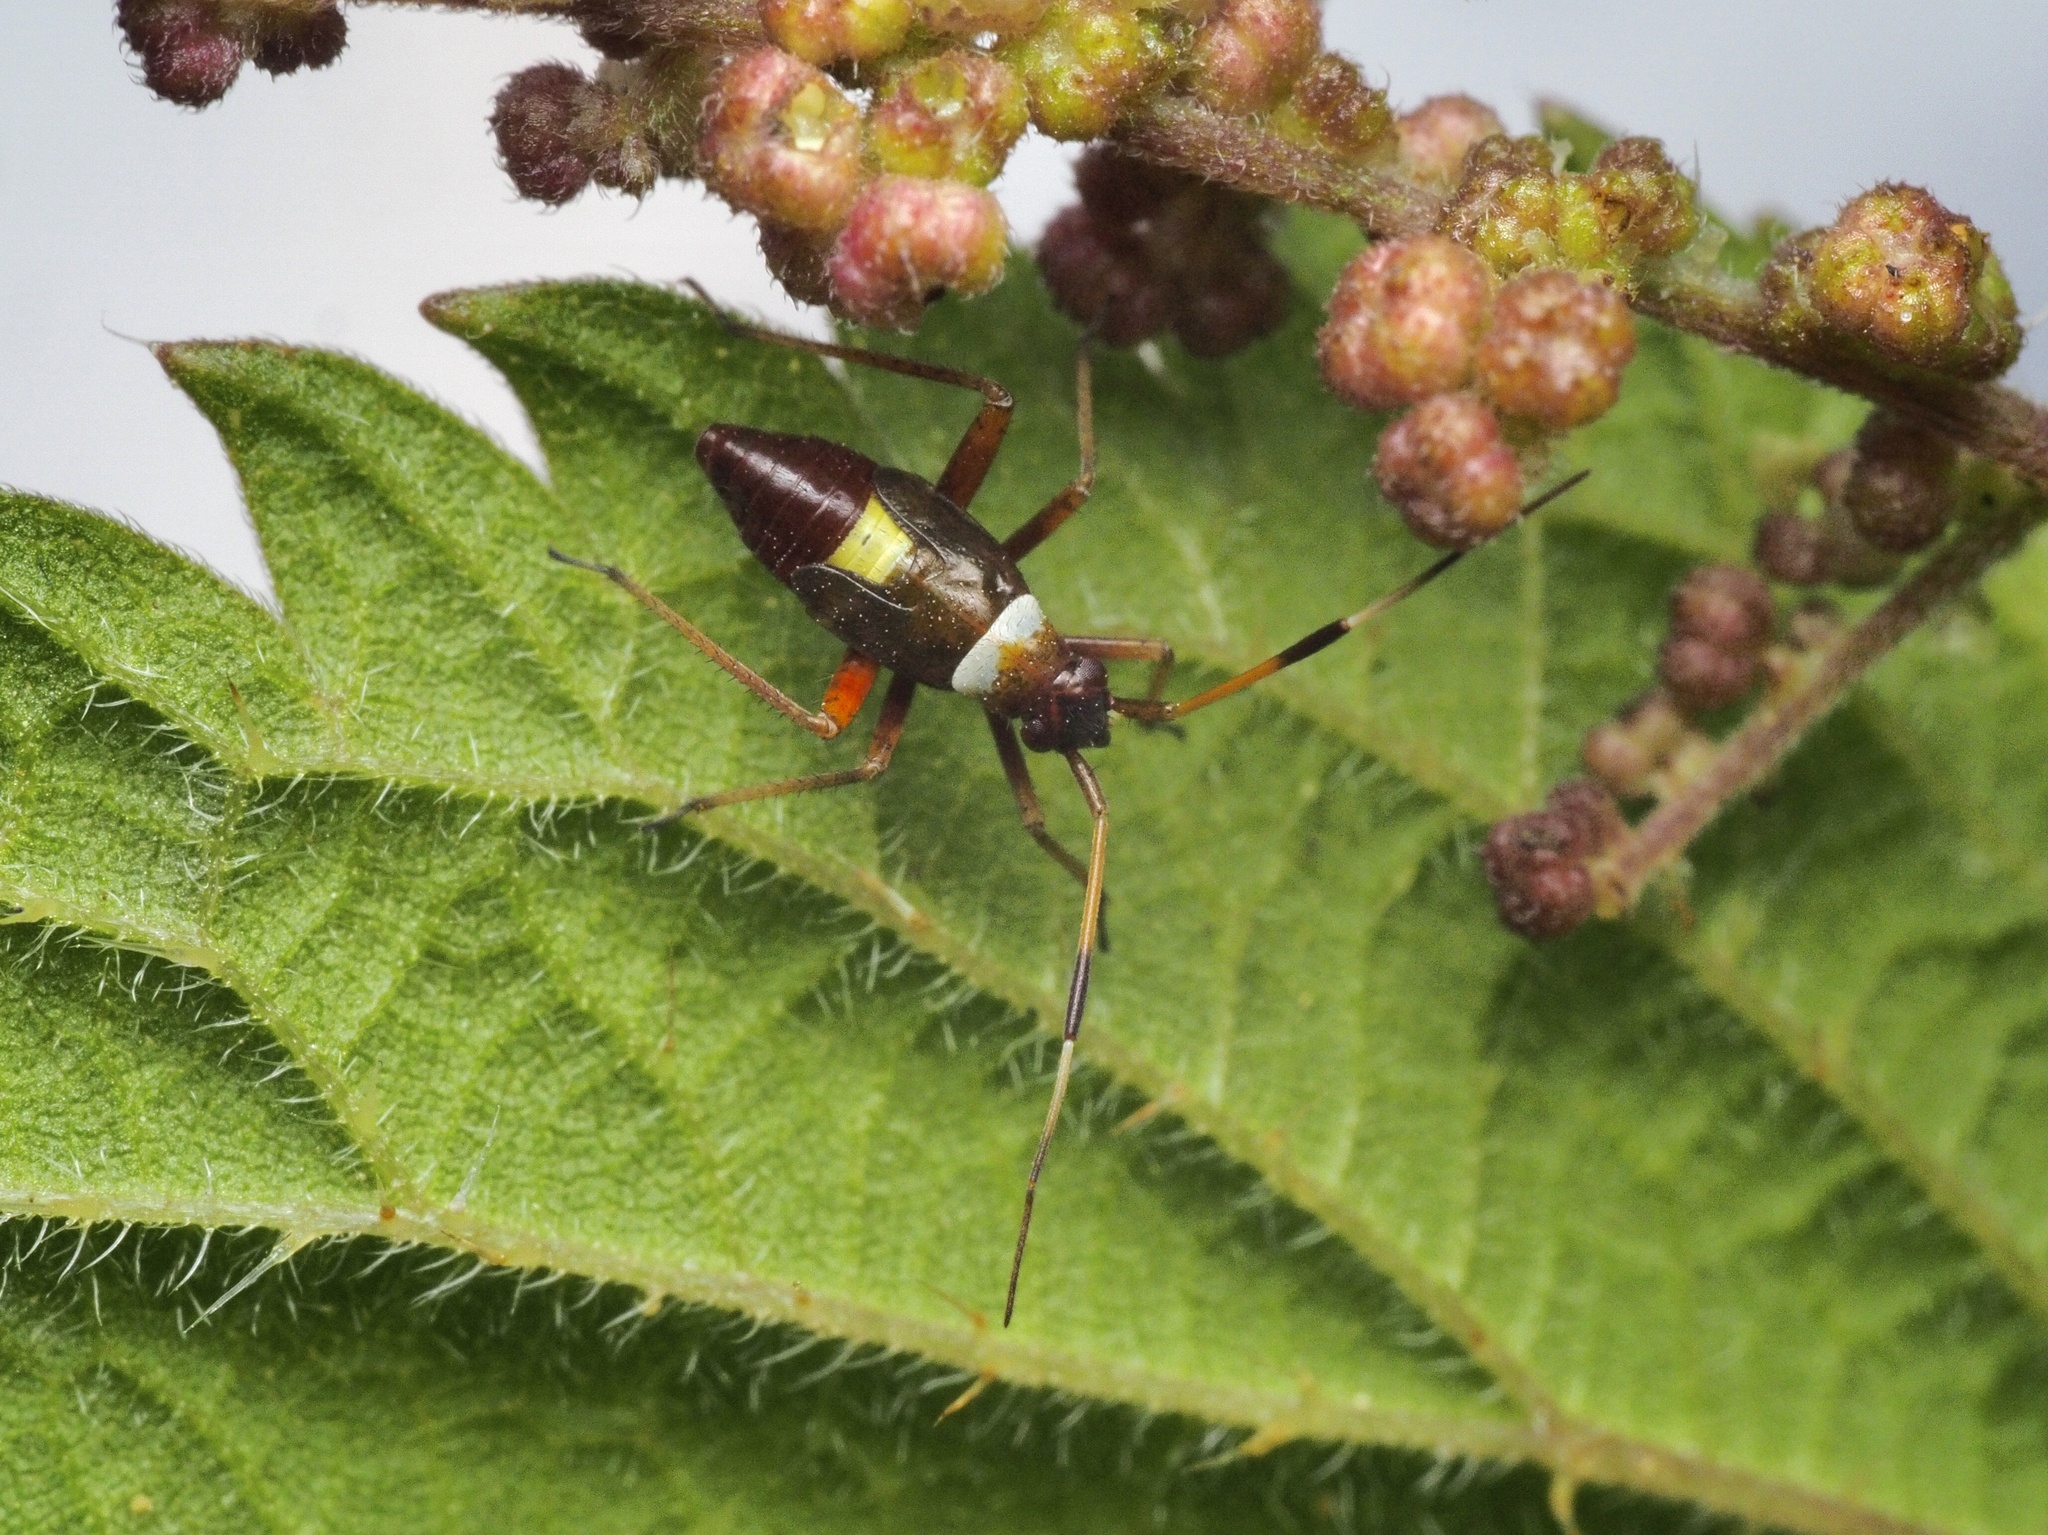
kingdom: Animalia
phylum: Arthropoda
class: Insecta
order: Hemiptera
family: Miridae
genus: Closterotomus
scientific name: Closterotomus biclavatus
